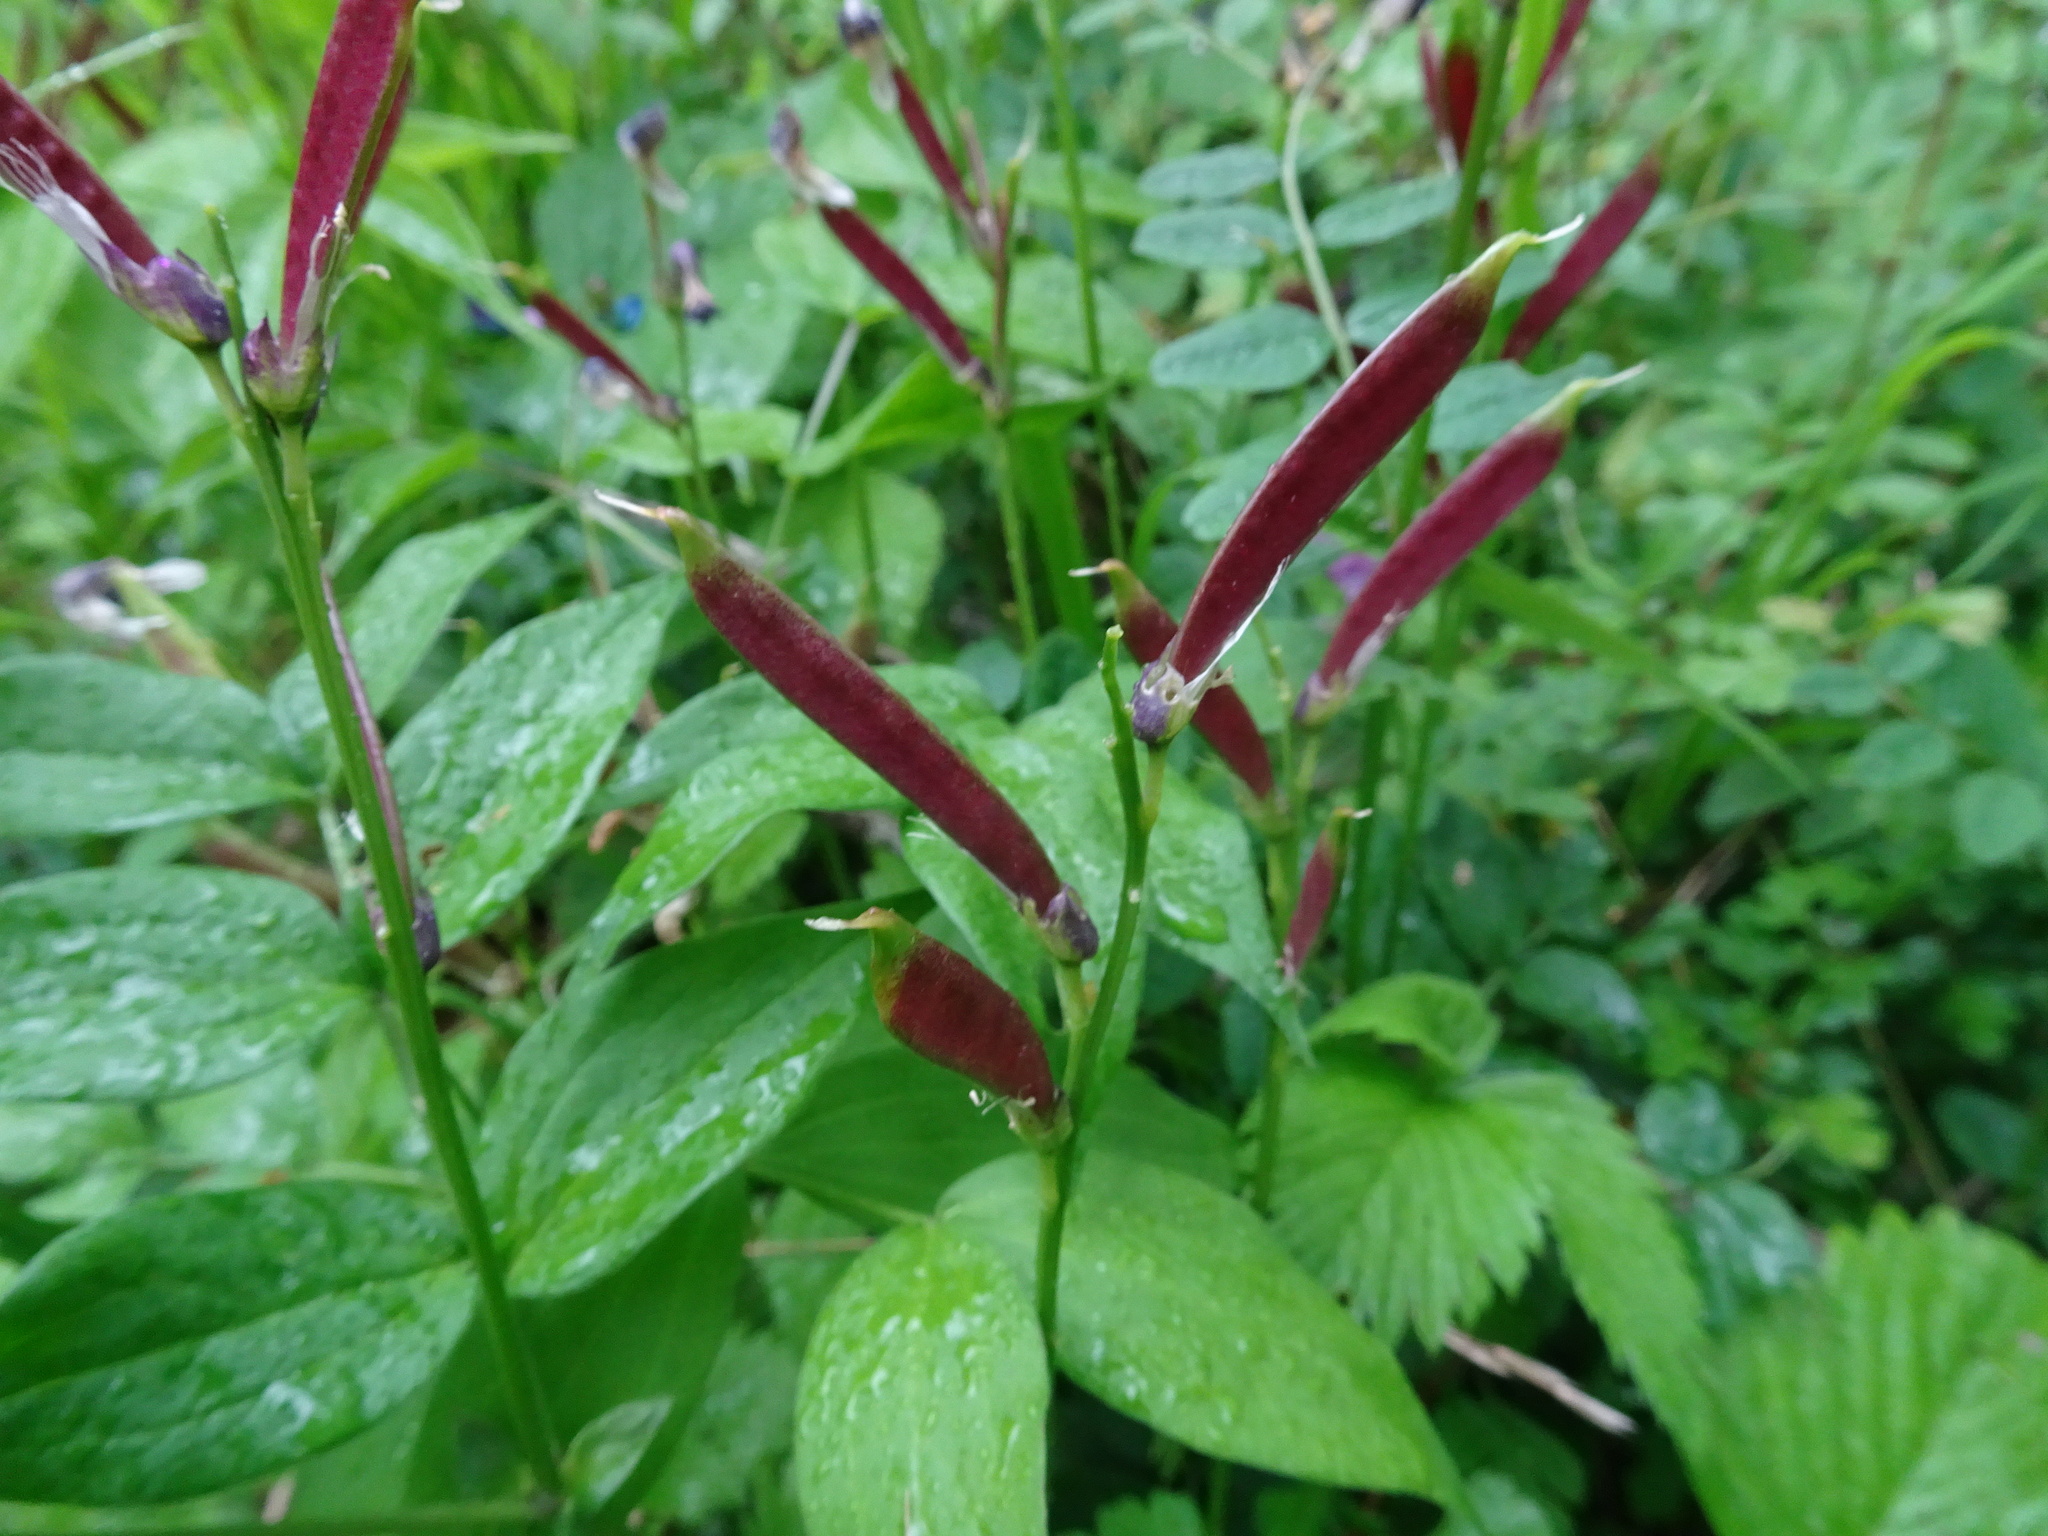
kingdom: Plantae
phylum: Tracheophyta
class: Magnoliopsida
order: Fabales
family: Fabaceae
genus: Lathyrus
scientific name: Lathyrus vernus
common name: Spring pea
